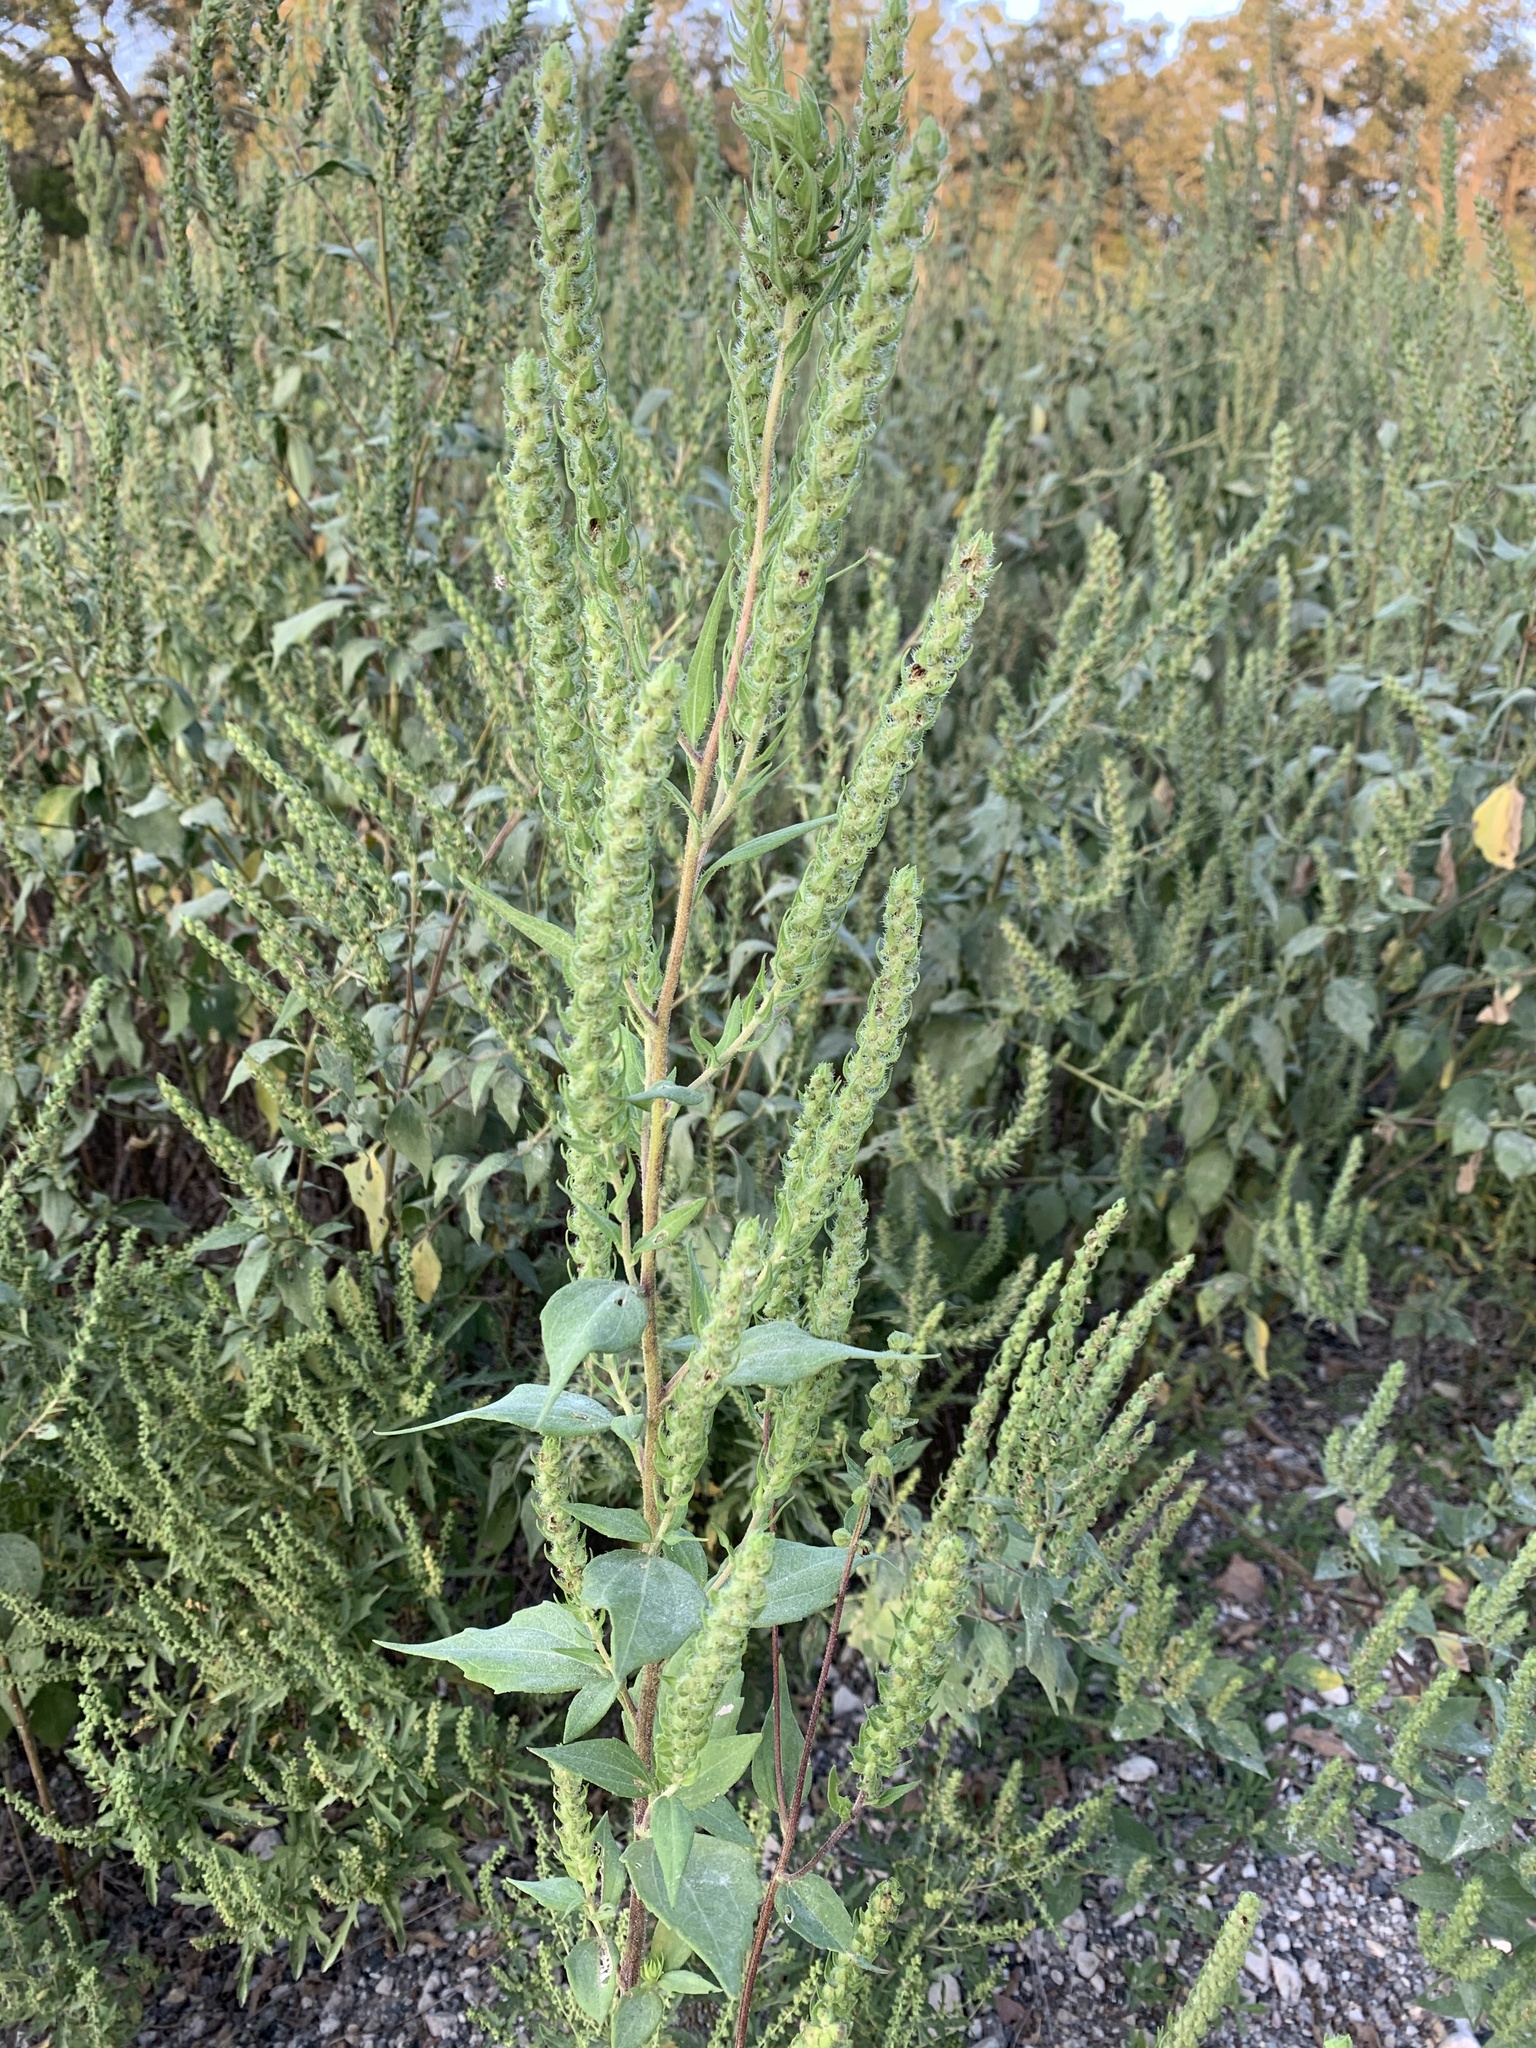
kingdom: Plantae
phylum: Tracheophyta
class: Magnoliopsida
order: Asterales
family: Asteraceae
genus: Iva
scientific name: Iva annua
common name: Marsh-elder
